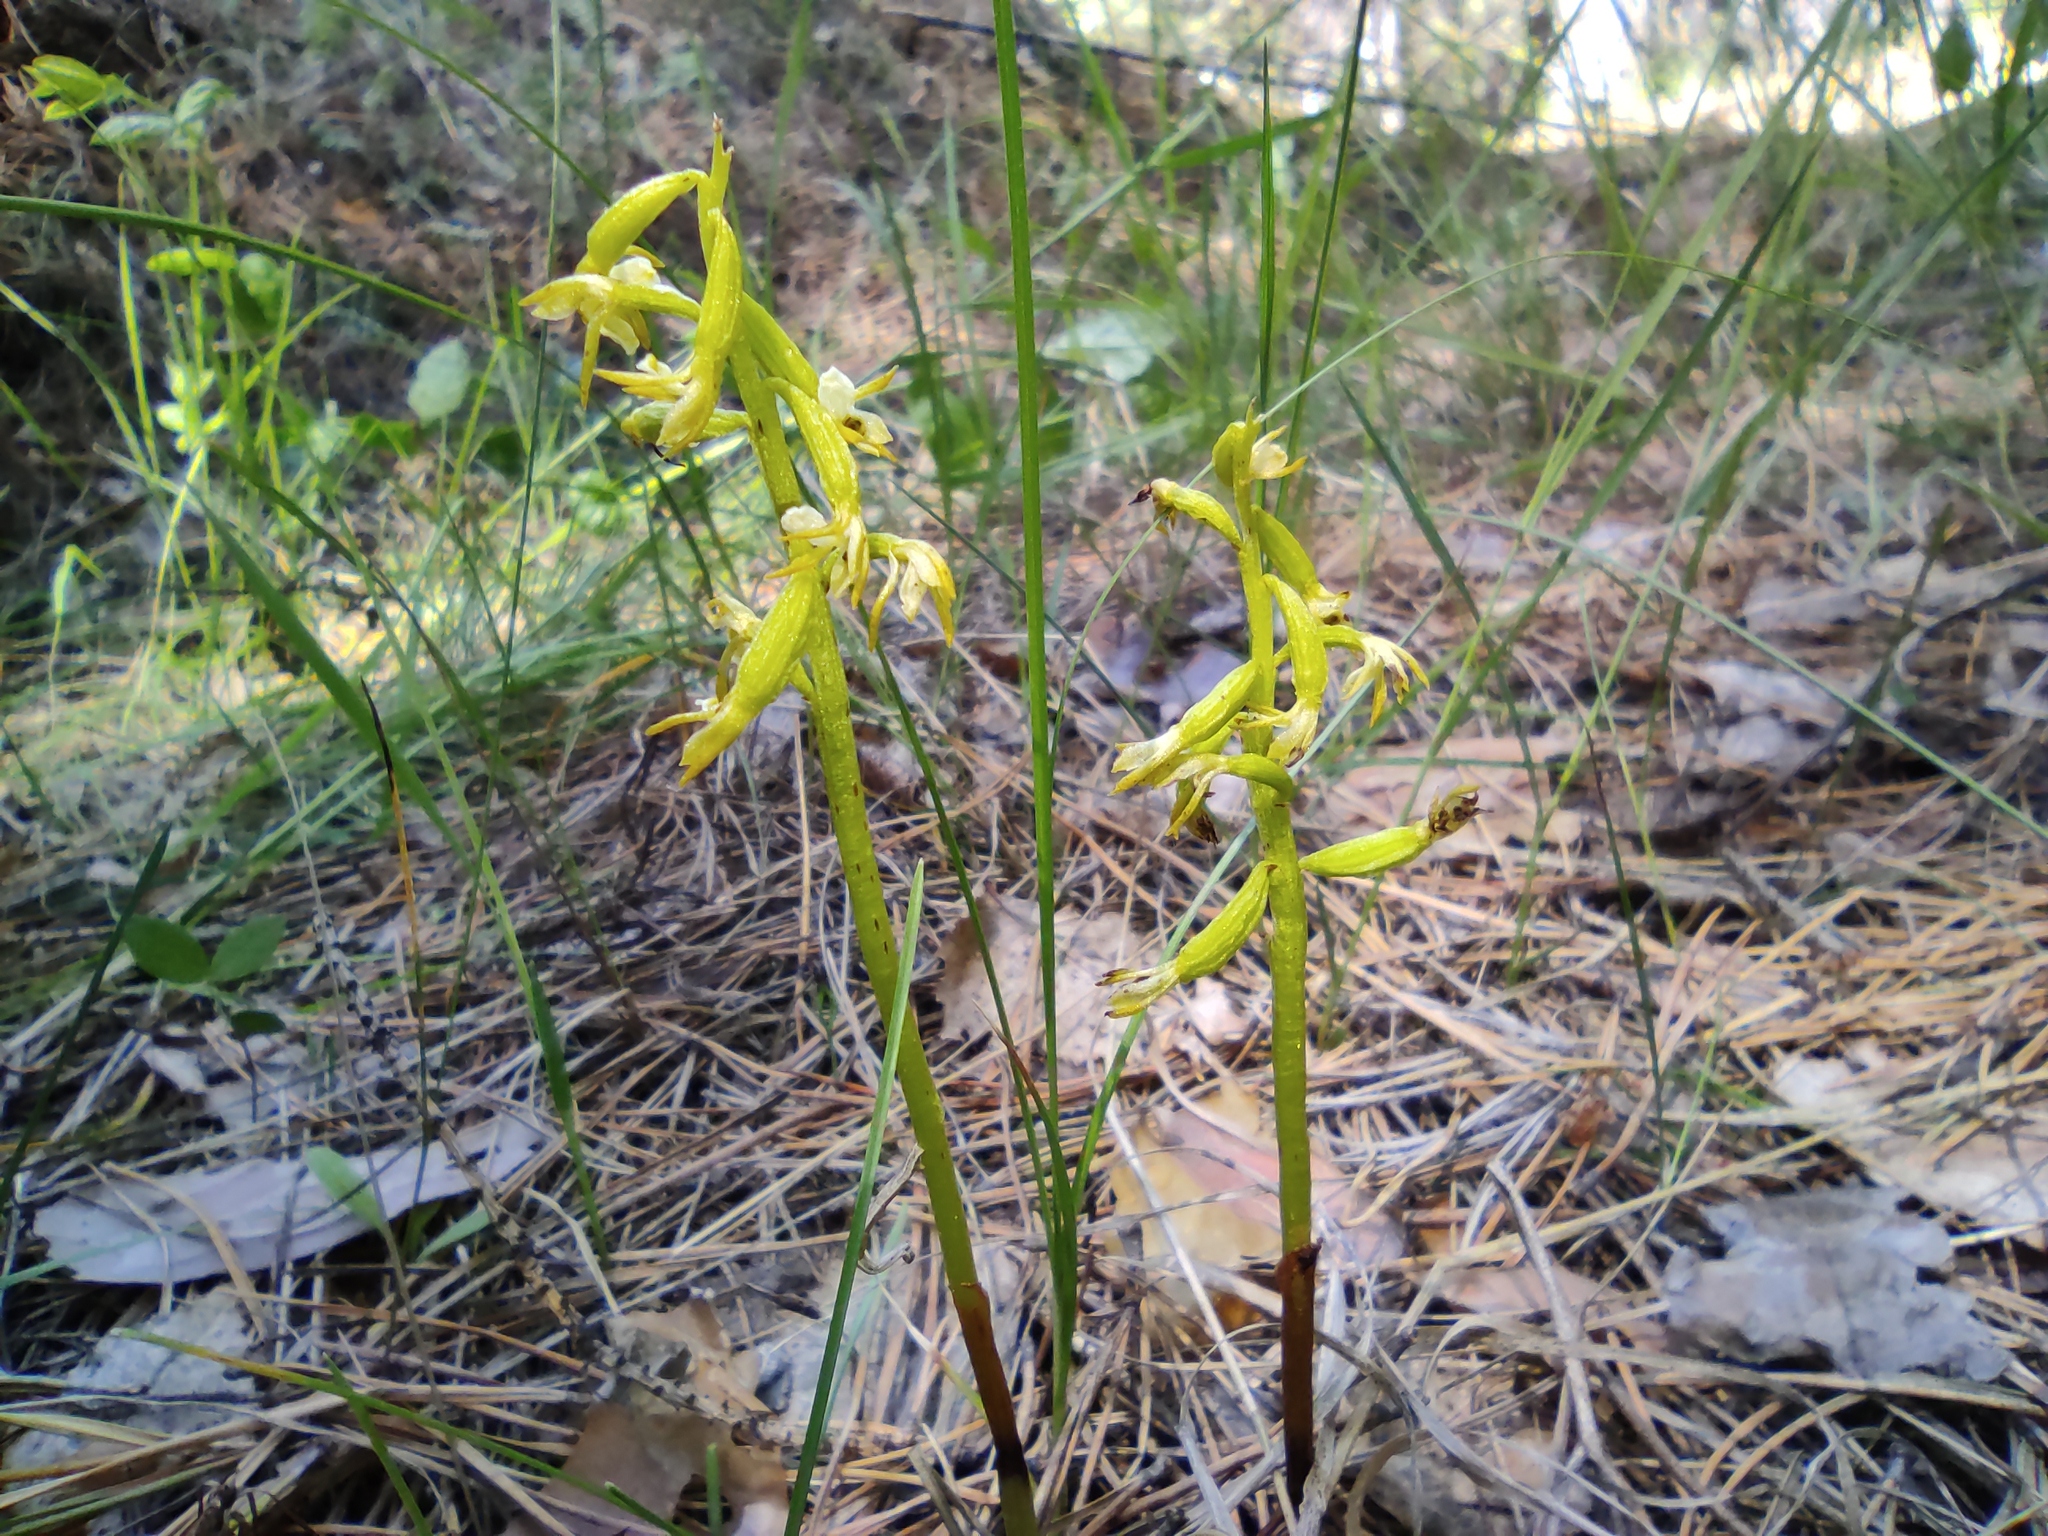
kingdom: Plantae
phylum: Tracheophyta
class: Liliopsida
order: Asparagales
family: Orchidaceae
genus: Corallorhiza
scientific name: Corallorhiza trifida
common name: Yellow coralroot
